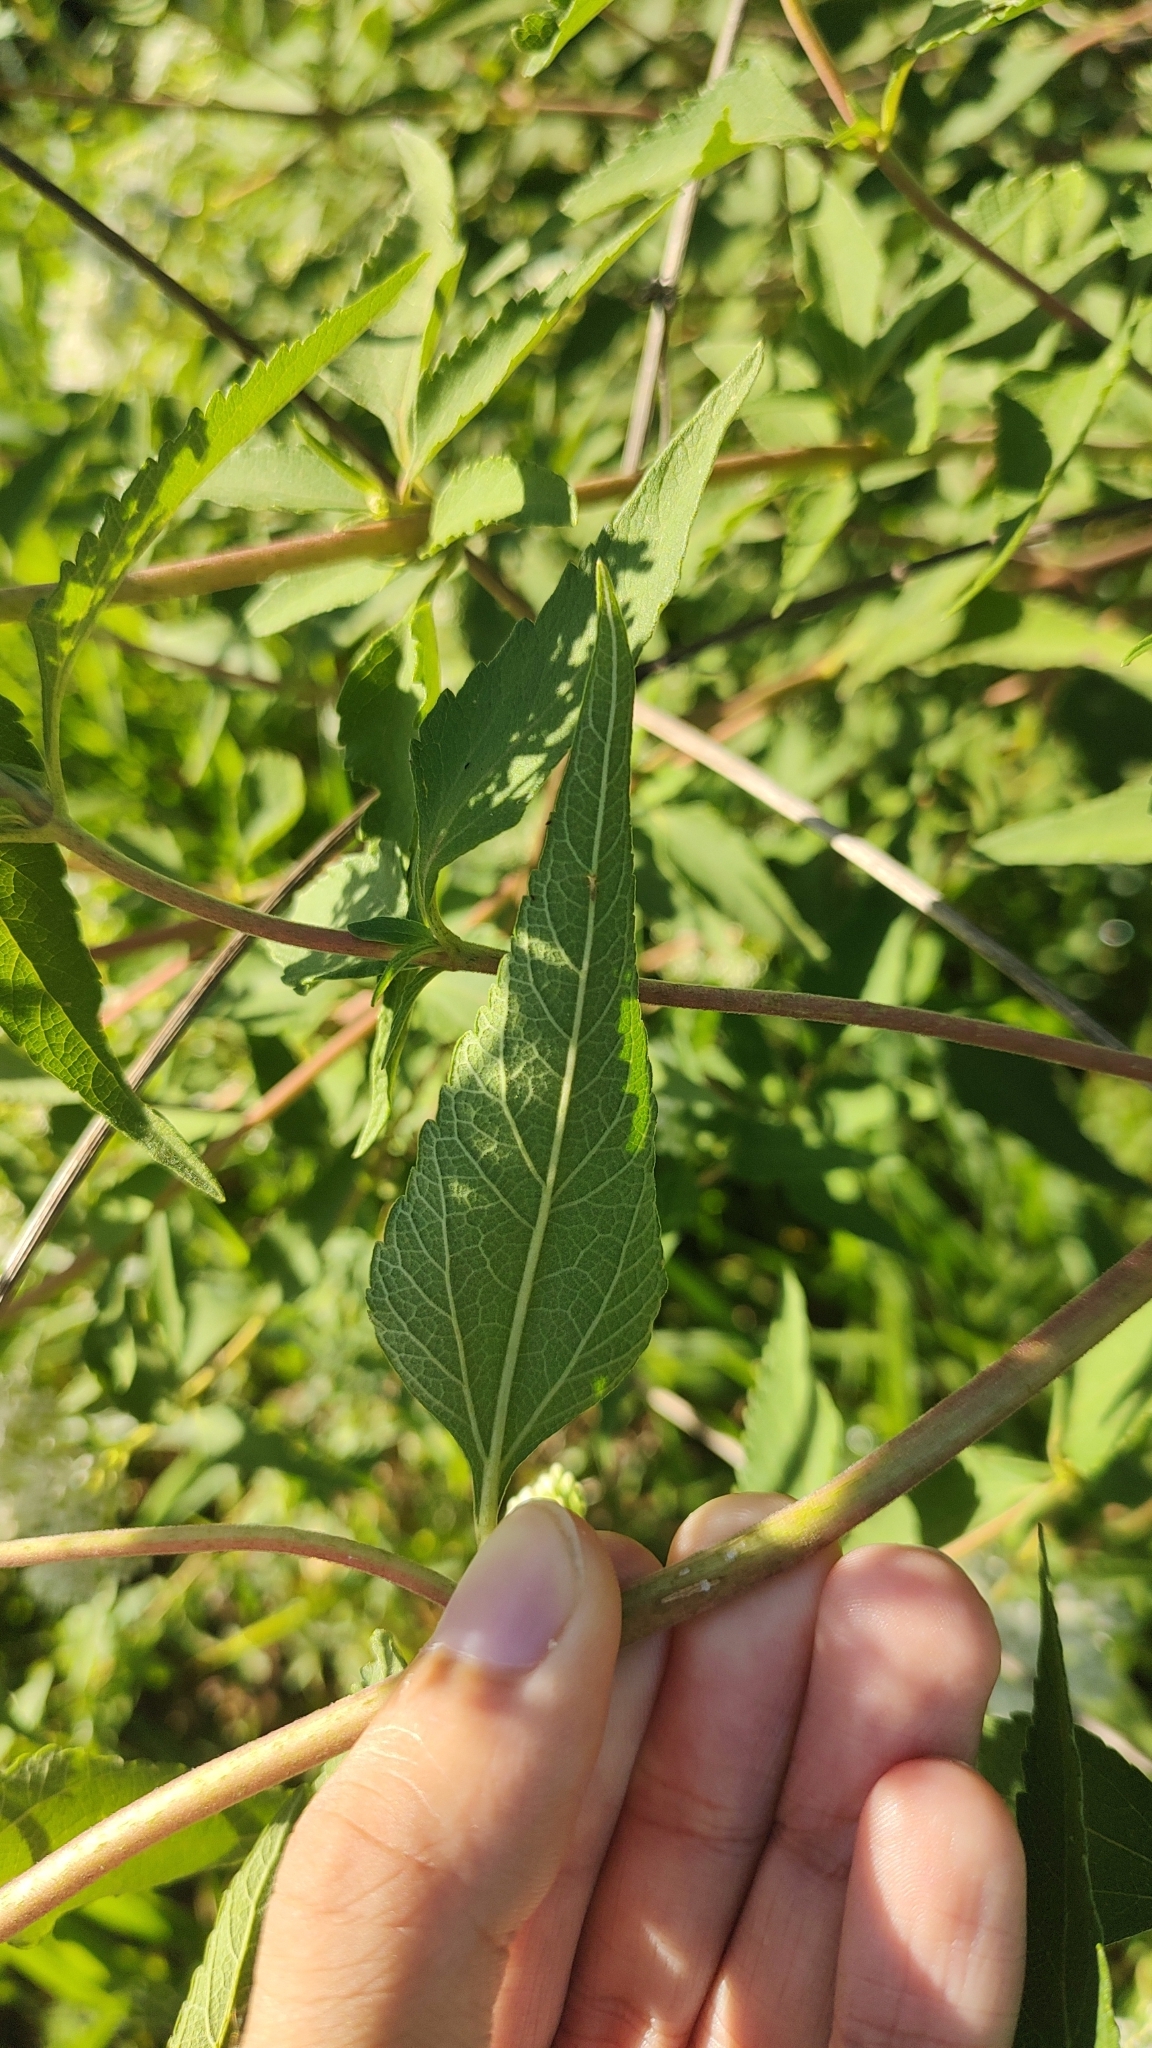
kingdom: Plantae
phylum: Tracheophyta
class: Magnoliopsida
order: Asterales
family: Asteraceae
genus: Austroeupatorium
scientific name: Austroeupatorium inulifolium
